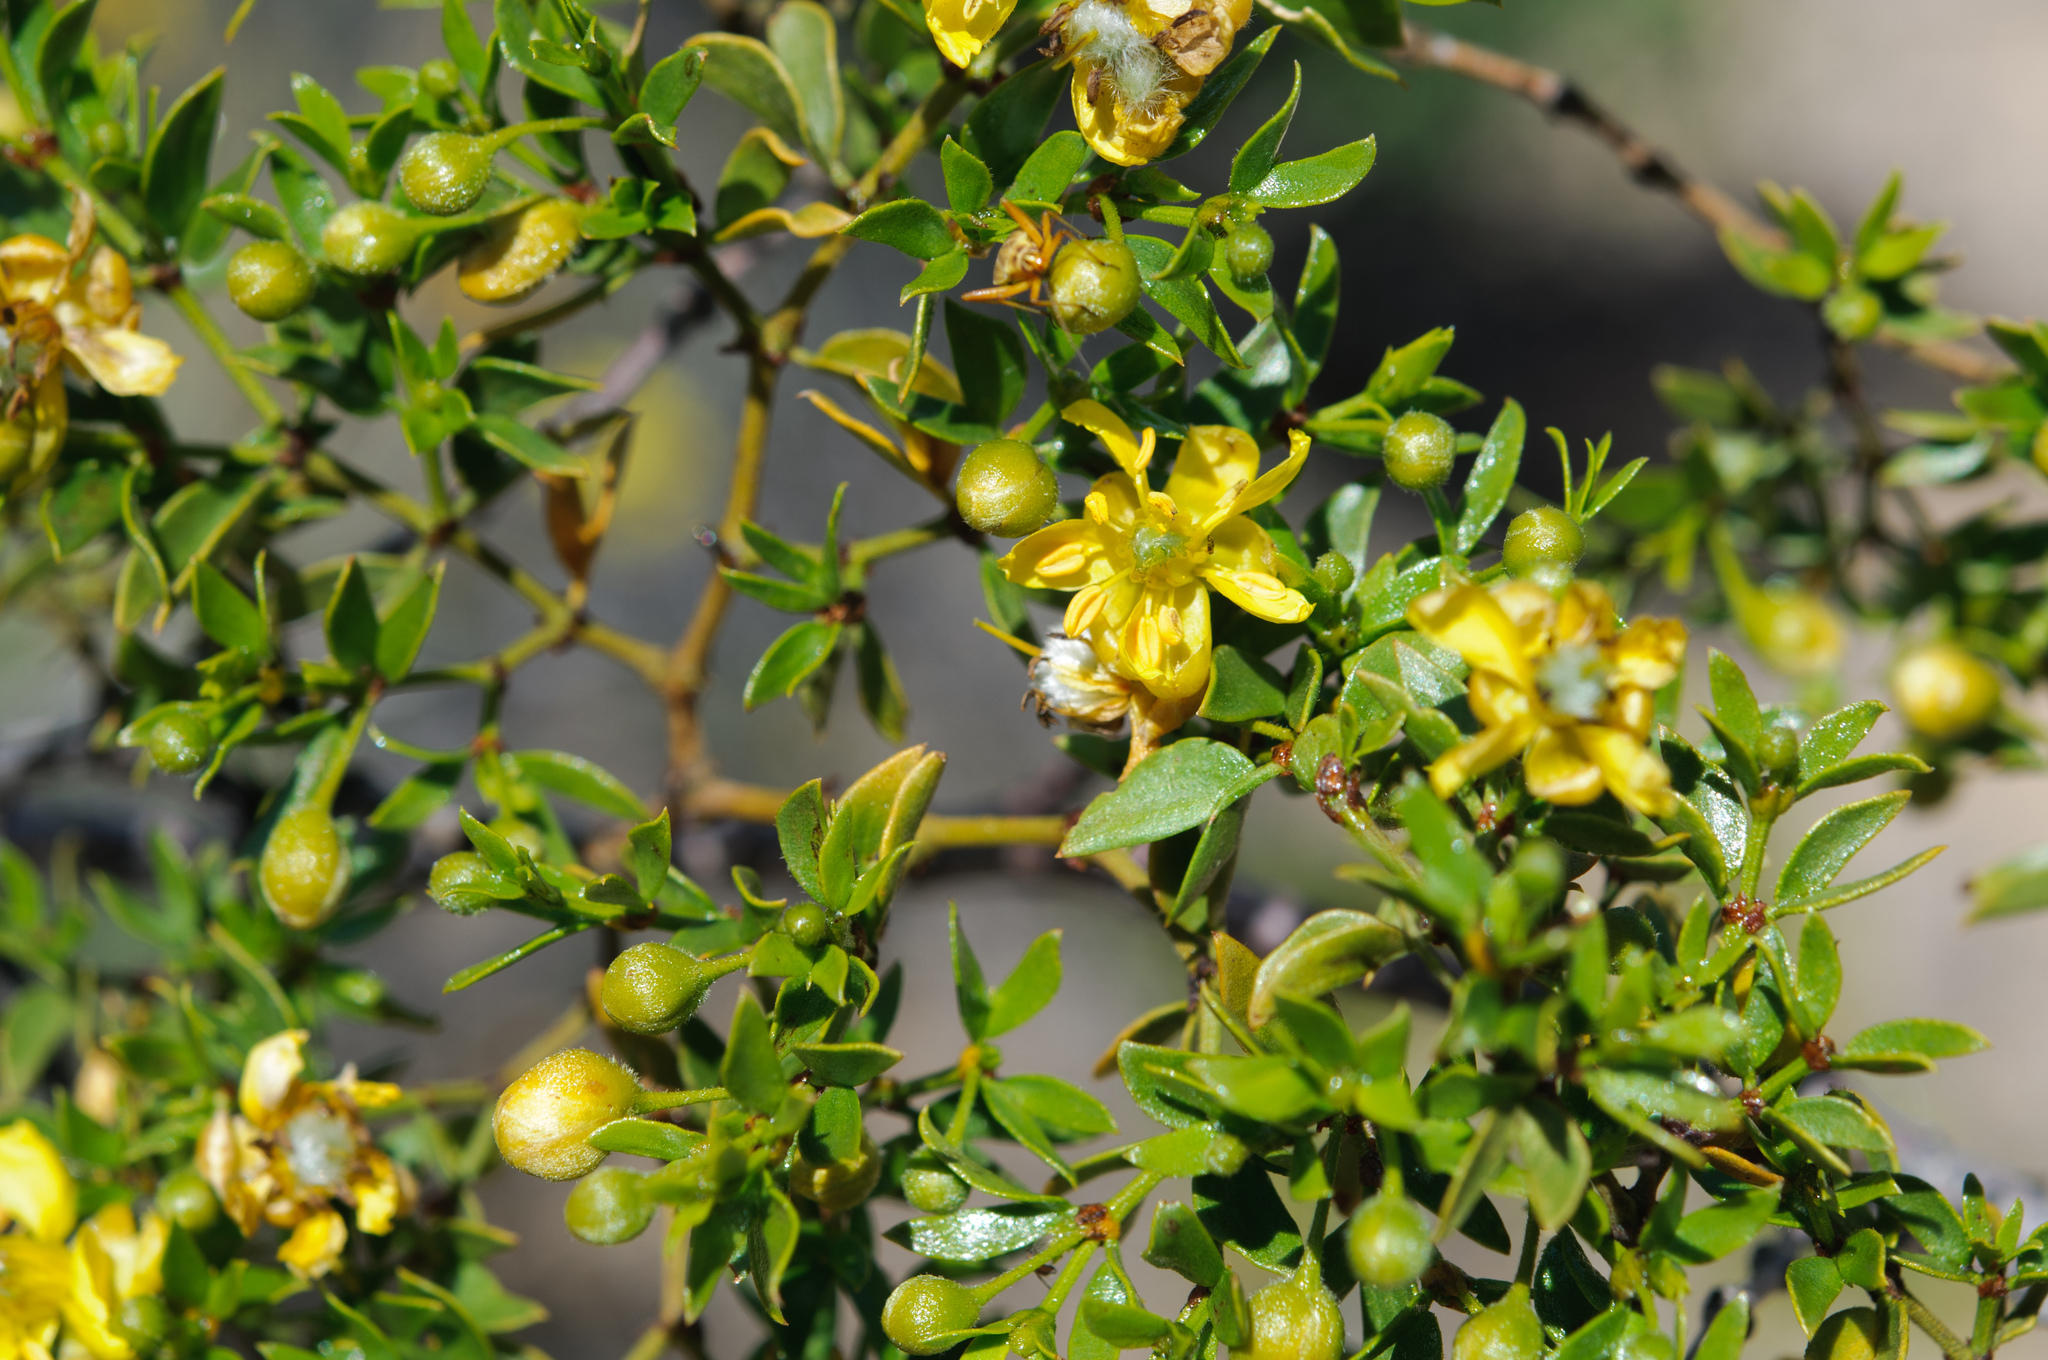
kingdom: Plantae
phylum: Tracheophyta
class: Magnoliopsida
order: Zygophyllales
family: Zygophyllaceae
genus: Larrea
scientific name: Larrea tridentata
